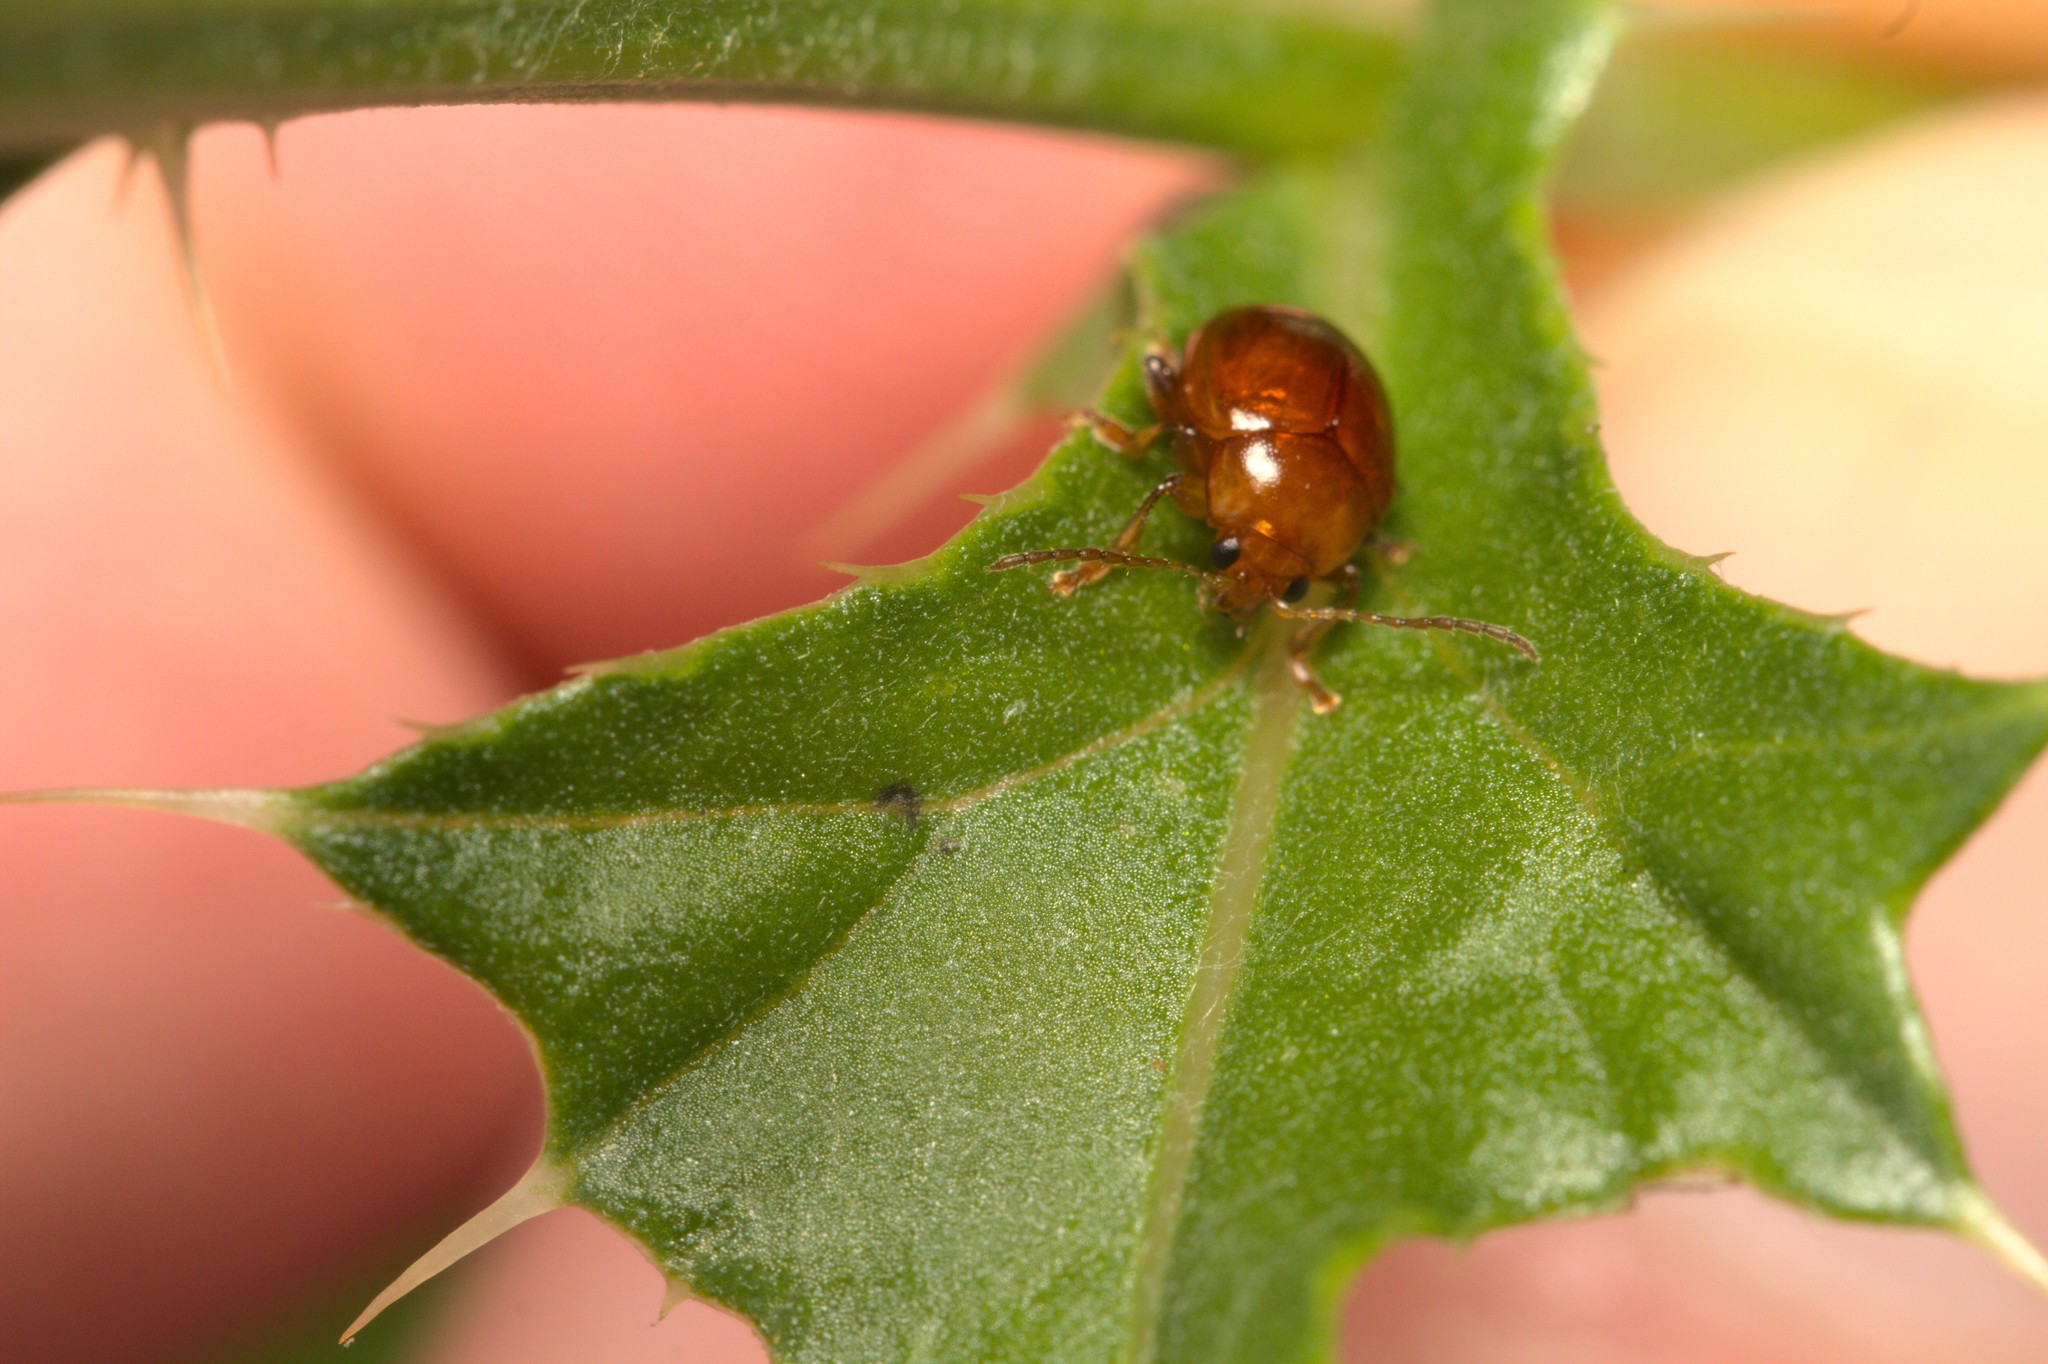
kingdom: Animalia
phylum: Arthropoda
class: Insecta
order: Coleoptera
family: Chrysomelidae
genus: Pistosia
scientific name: Pistosia testacea
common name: Leaf beetle
